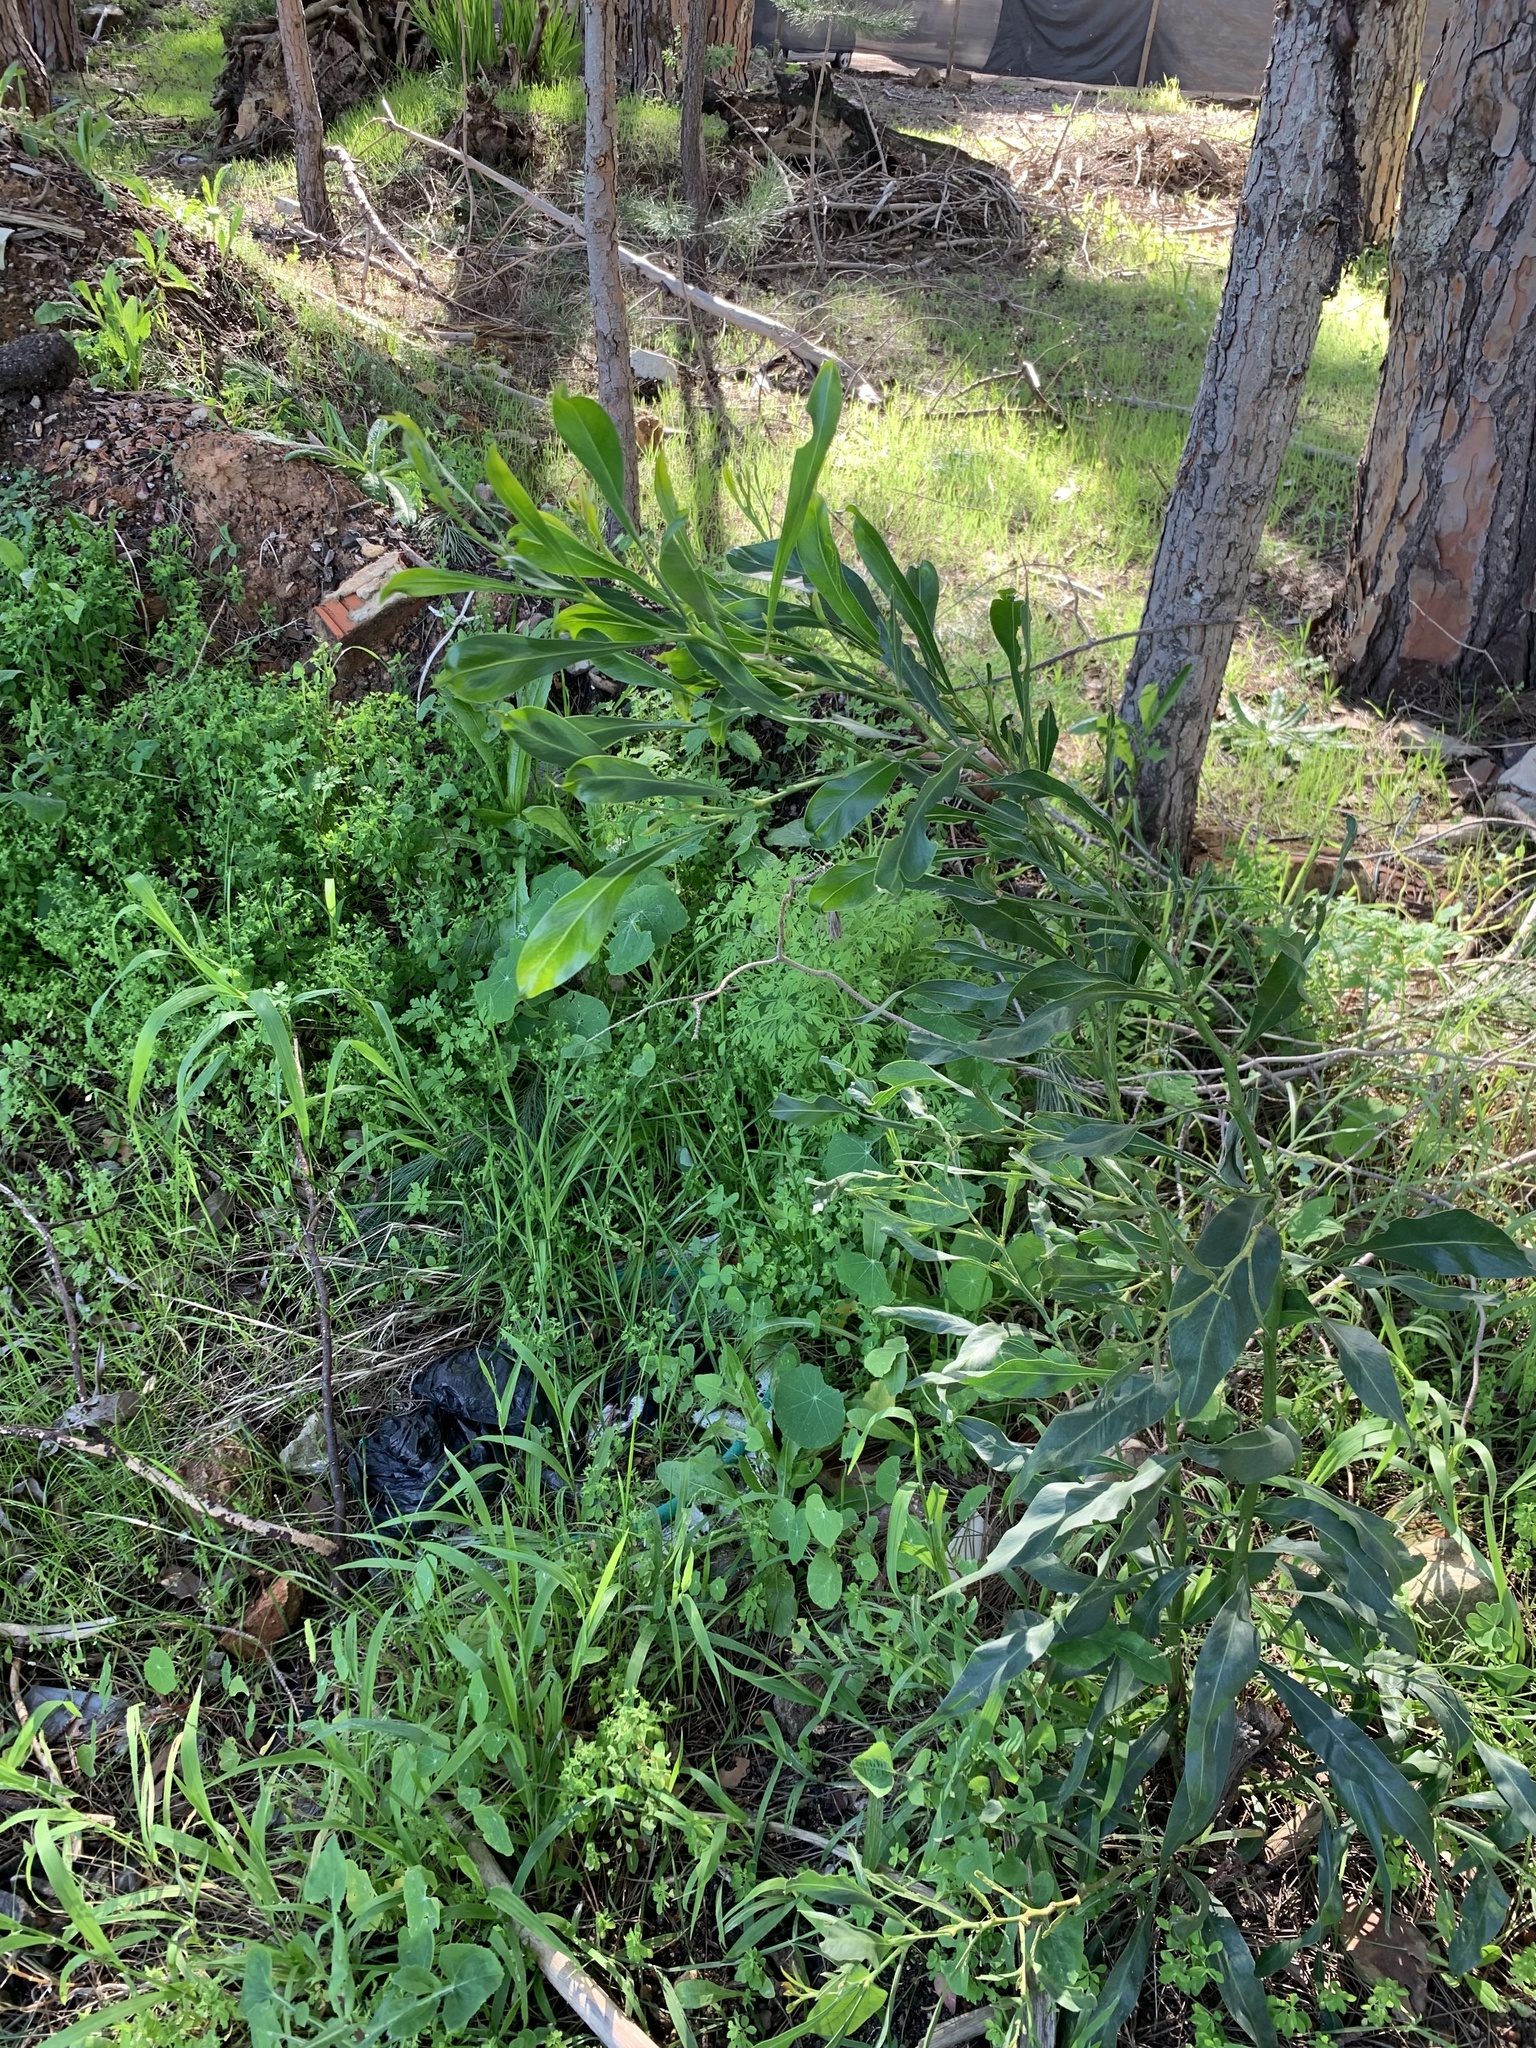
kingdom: Plantae
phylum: Tracheophyta
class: Magnoliopsida
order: Fabales
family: Fabaceae
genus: Acacia
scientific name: Acacia saligna
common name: Orange wattle
